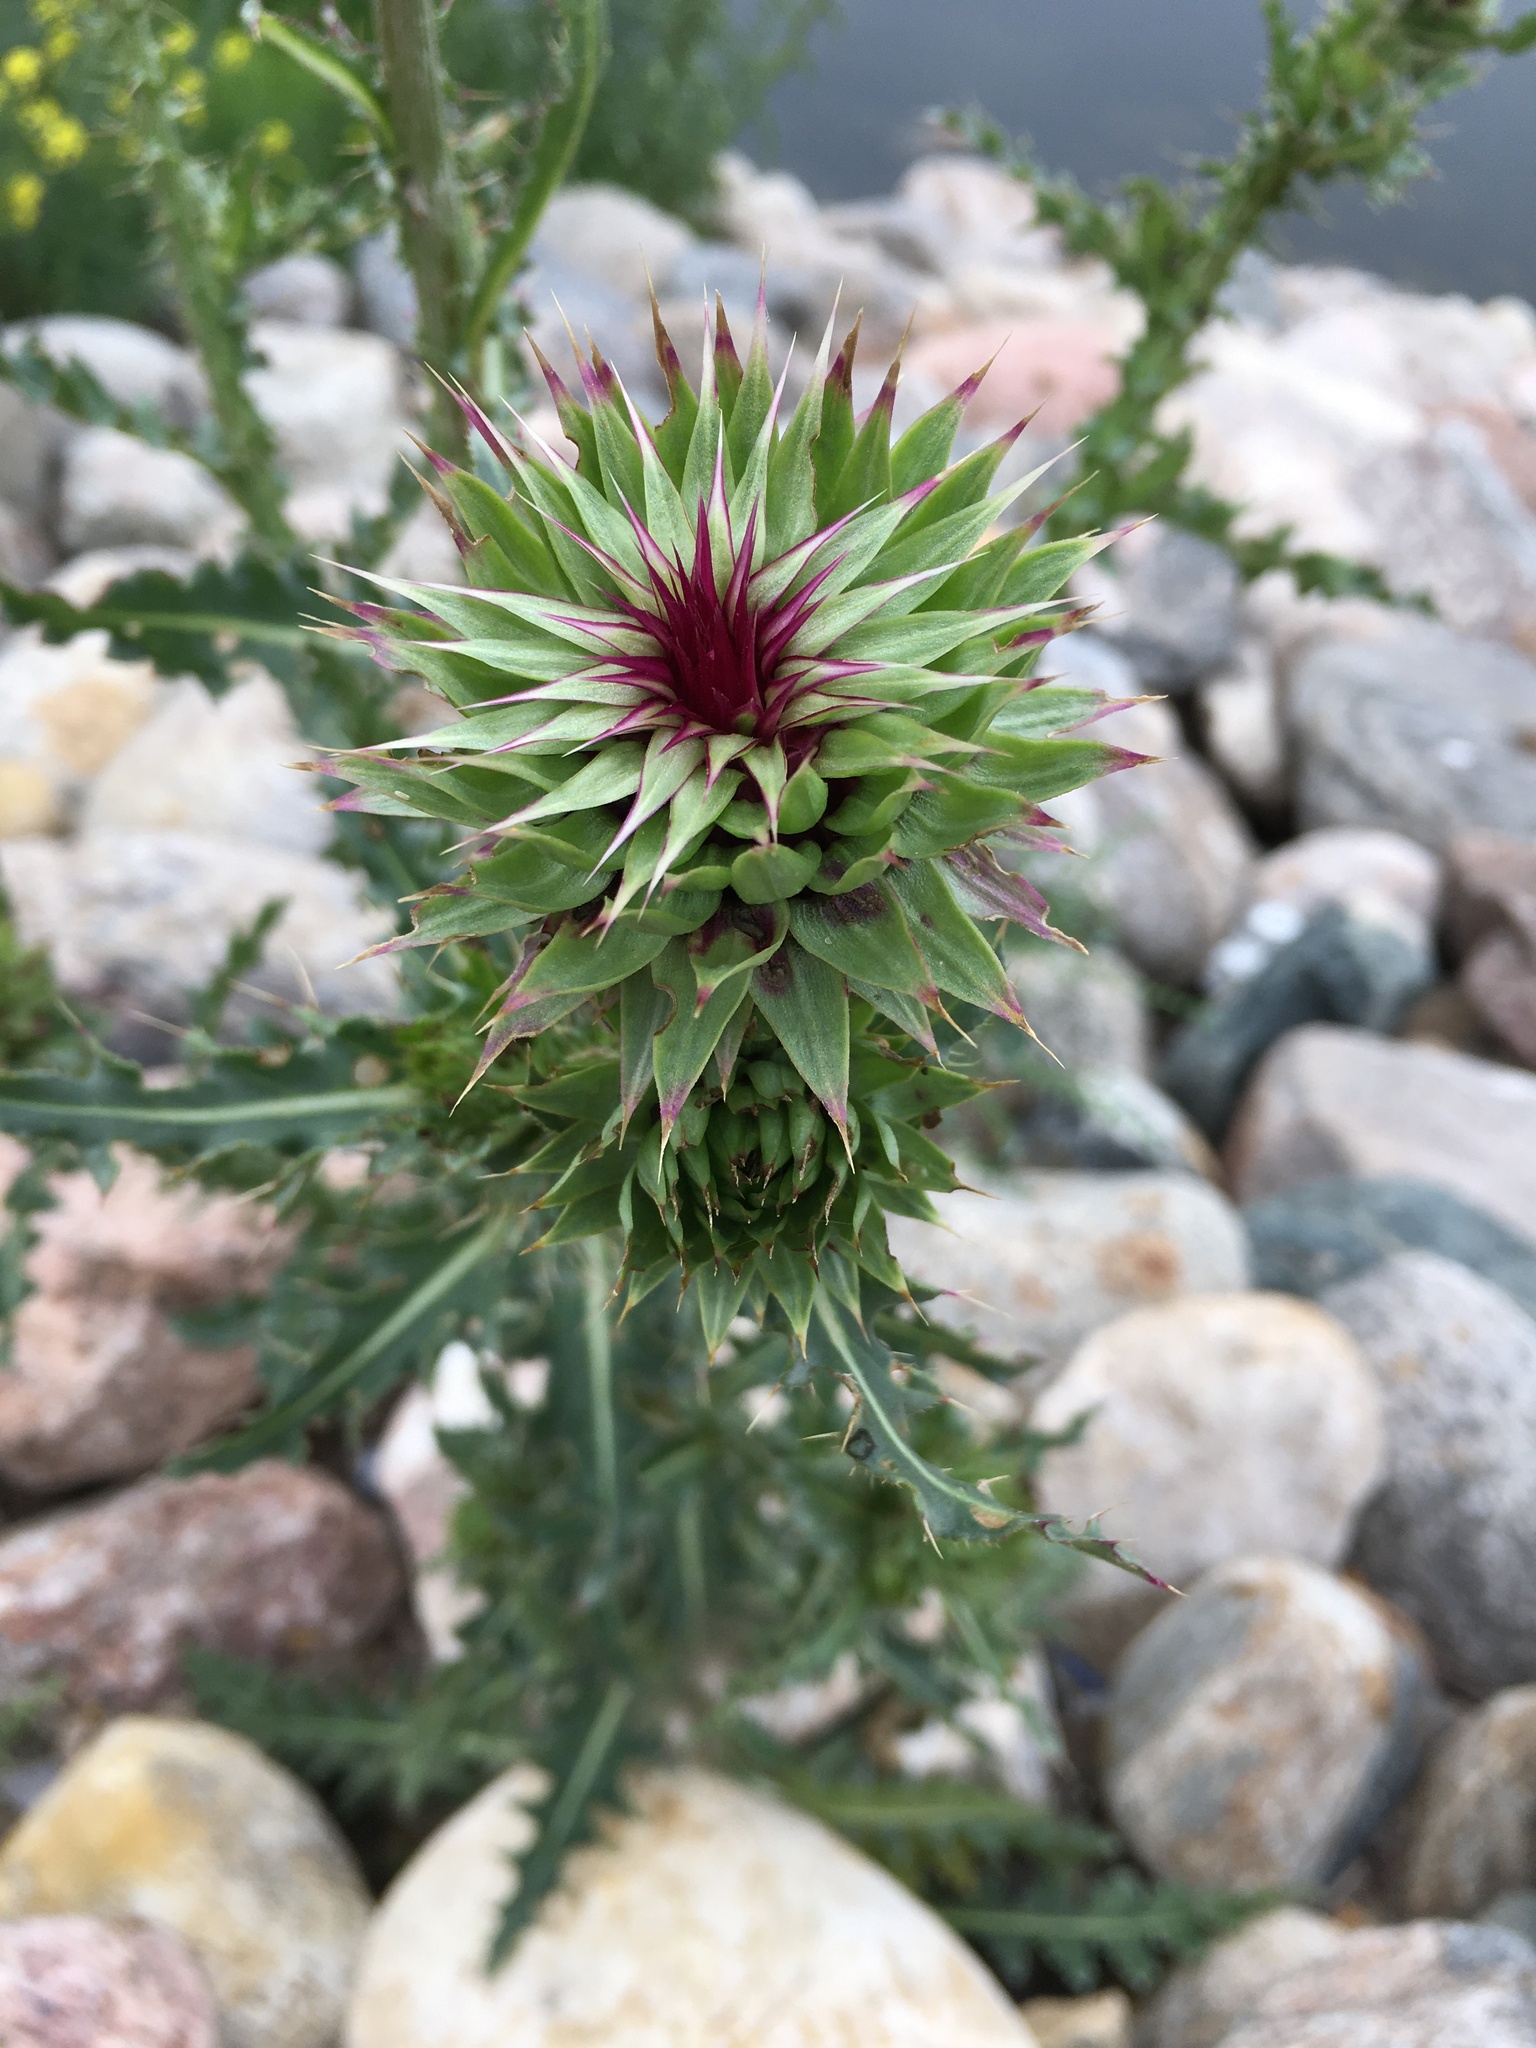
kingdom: Plantae
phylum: Tracheophyta
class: Magnoliopsida
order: Asterales
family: Asteraceae
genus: Carduus
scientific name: Carduus nutans
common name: Musk thistle
